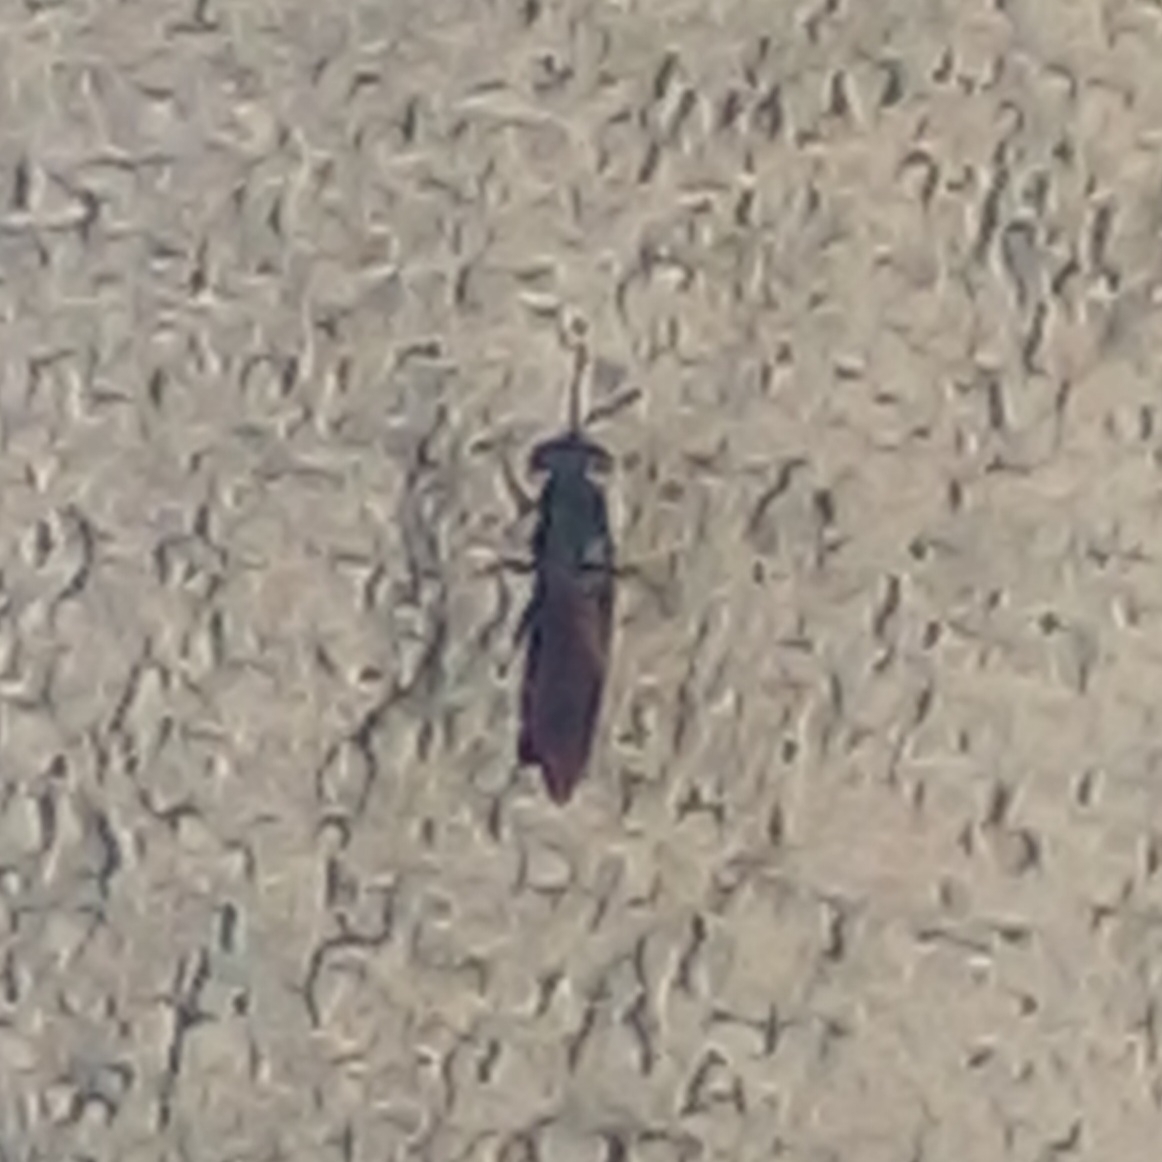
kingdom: Animalia
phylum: Arthropoda
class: Insecta
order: Diptera
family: Stratiomyidae
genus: Hermetia
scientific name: Hermetia illucens
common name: Black soldier fly
